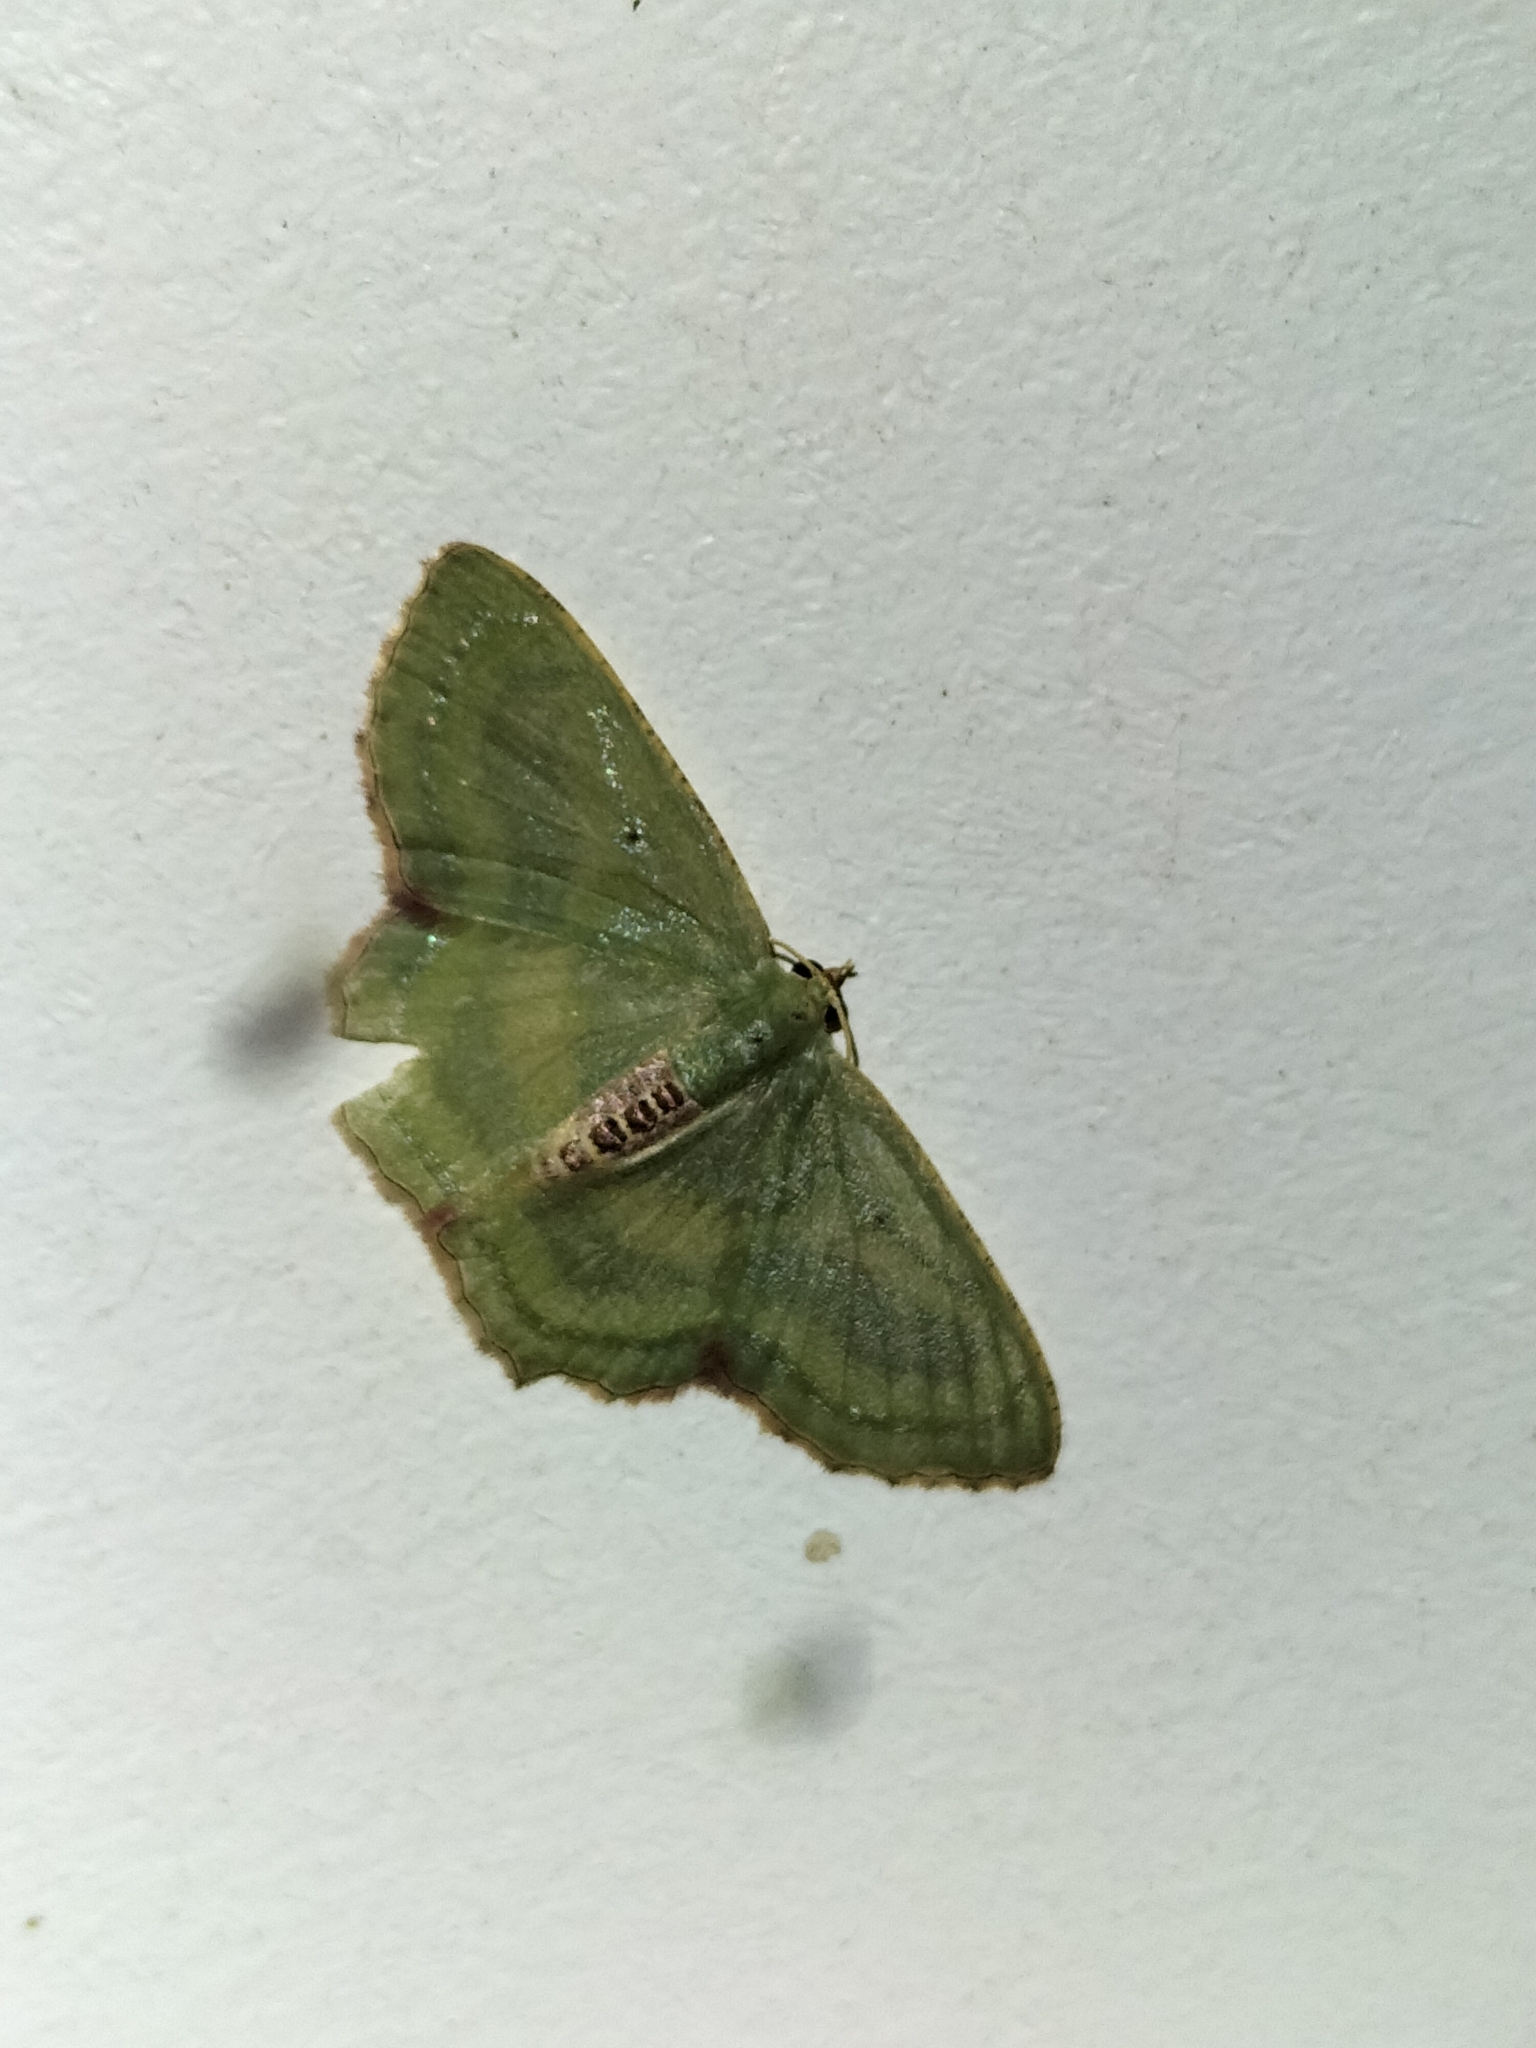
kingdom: Animalia
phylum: Arthropoda
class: Insecta
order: Lepidoptera
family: Geometridae
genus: Metallochlora
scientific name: Metallochlora lineata
